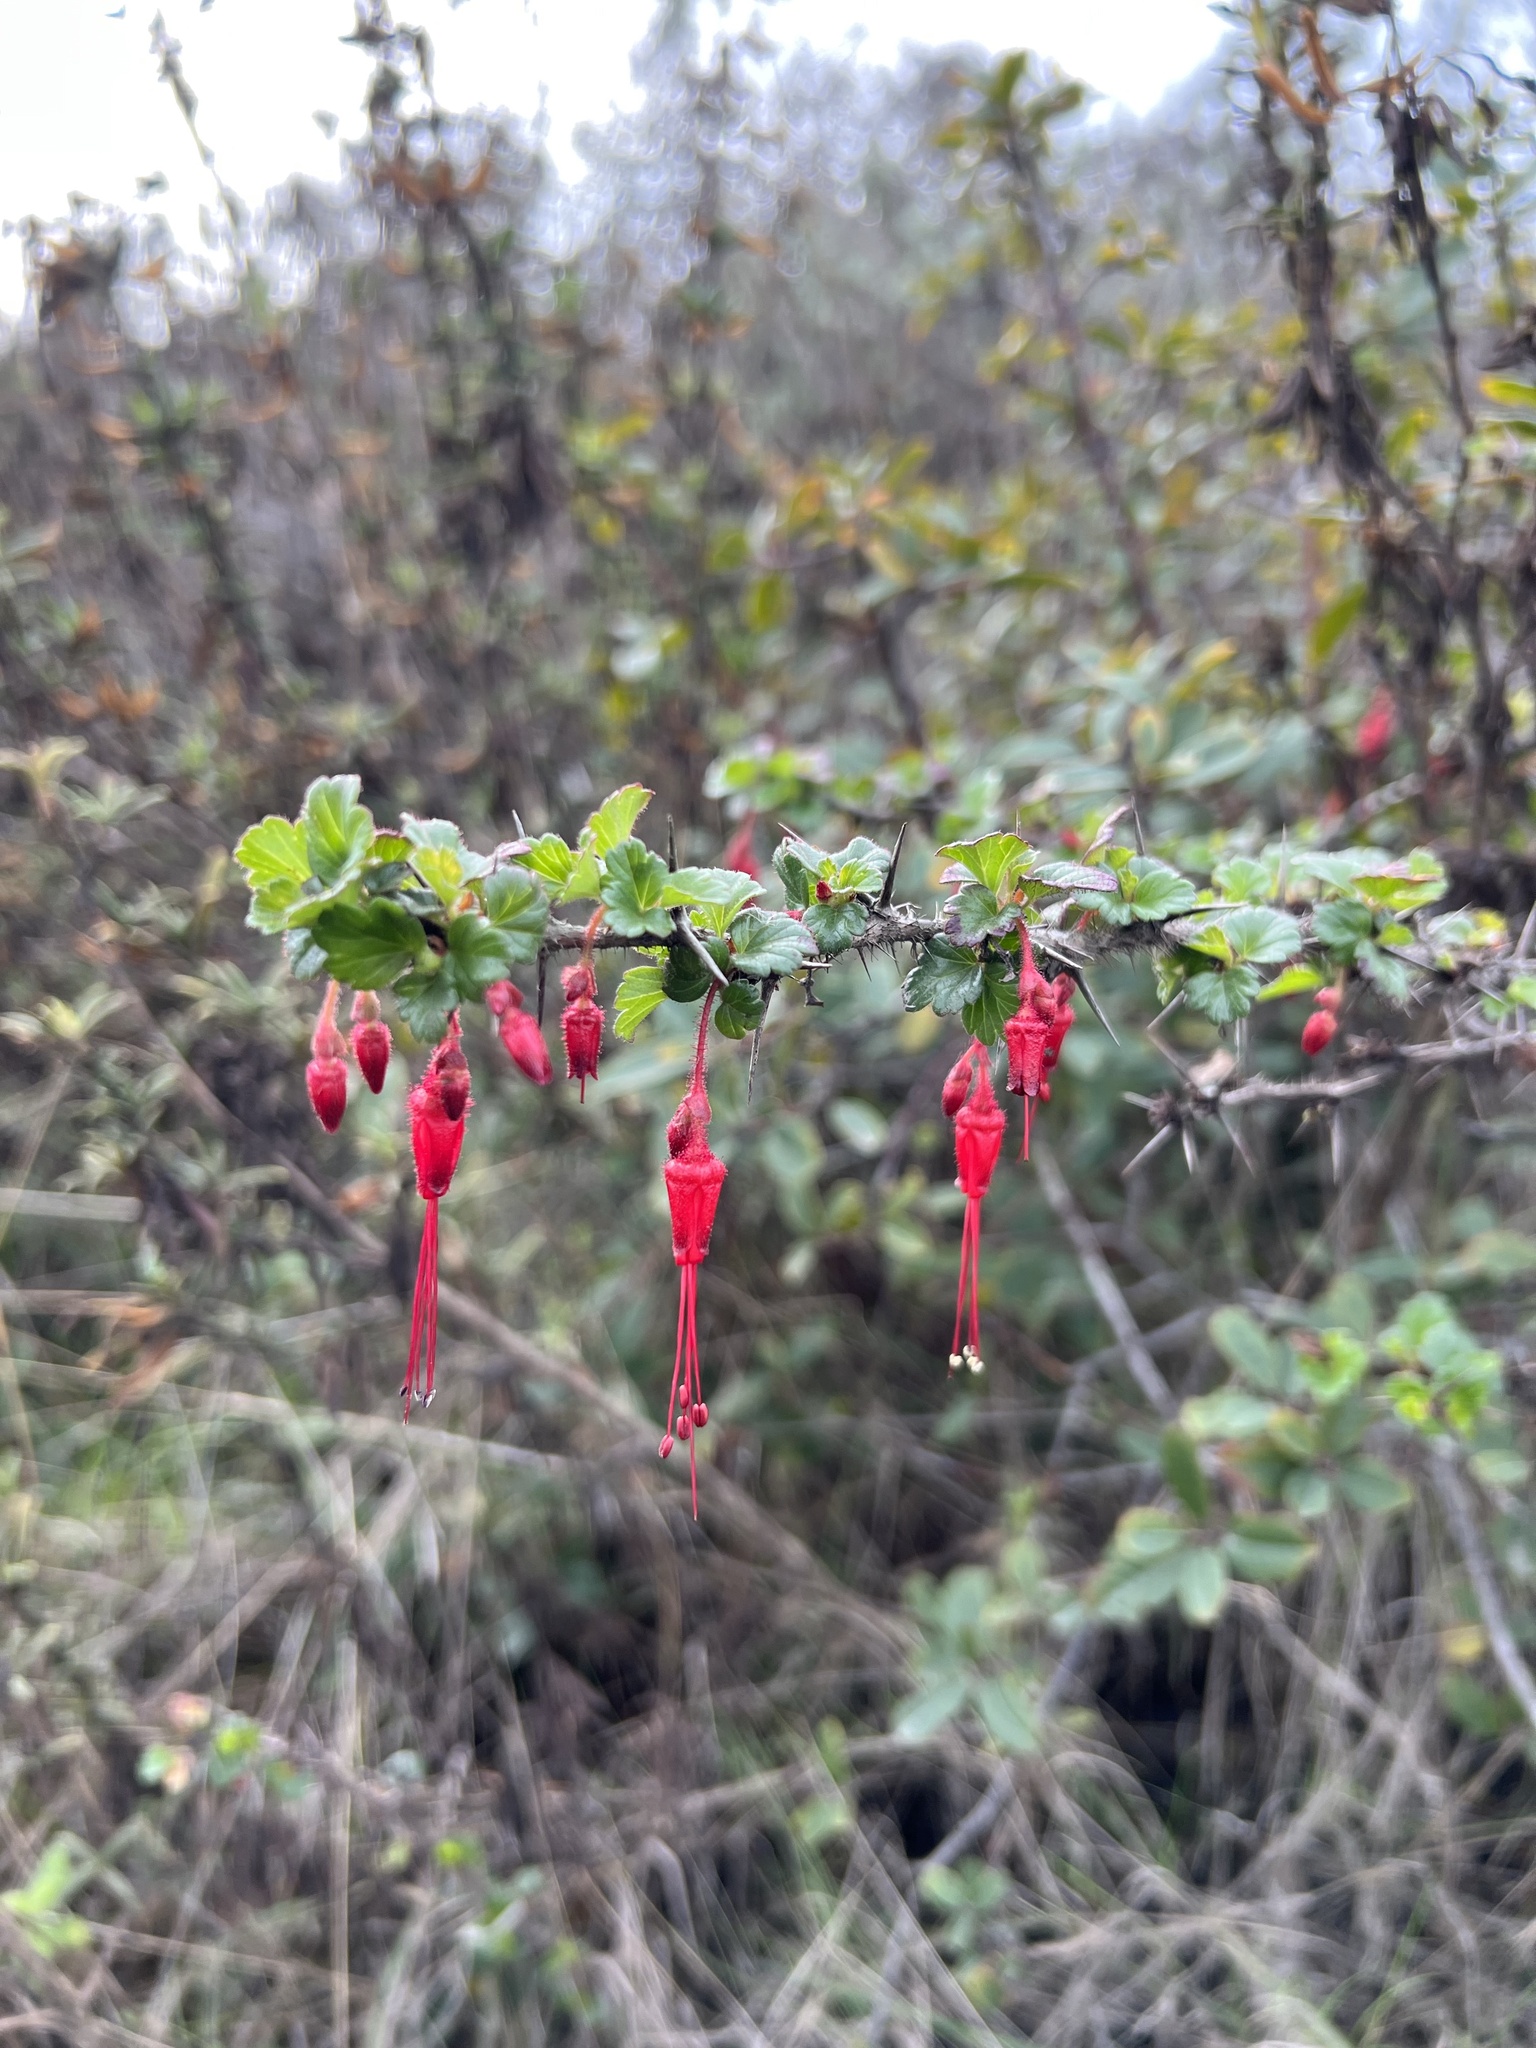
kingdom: Plantae
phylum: Tracheophyta
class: Magnoliopsida
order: Saxifragales
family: Grossulariaceae
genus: Ribes
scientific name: Ribes speciosum
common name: Fuchsia-flower gooseberry
